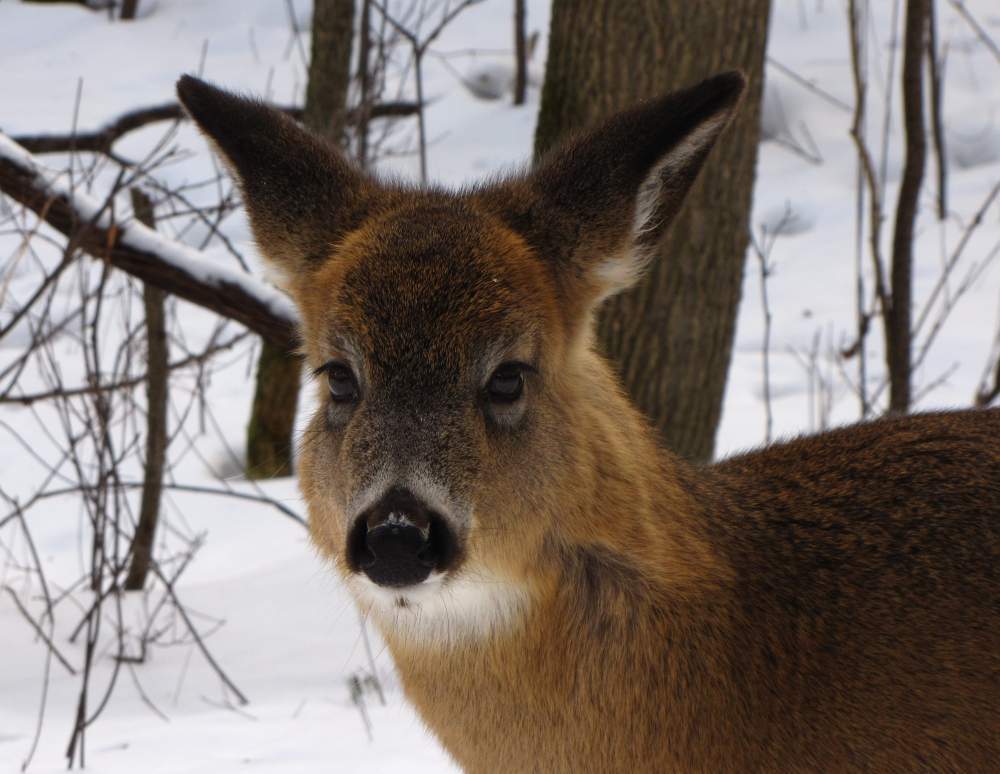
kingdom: Animalia
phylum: Chordata
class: Mammalia
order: Artiodactyla
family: Cervidae
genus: Odocoileus
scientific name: Odocoileus virginianus
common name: White-tailed deer
